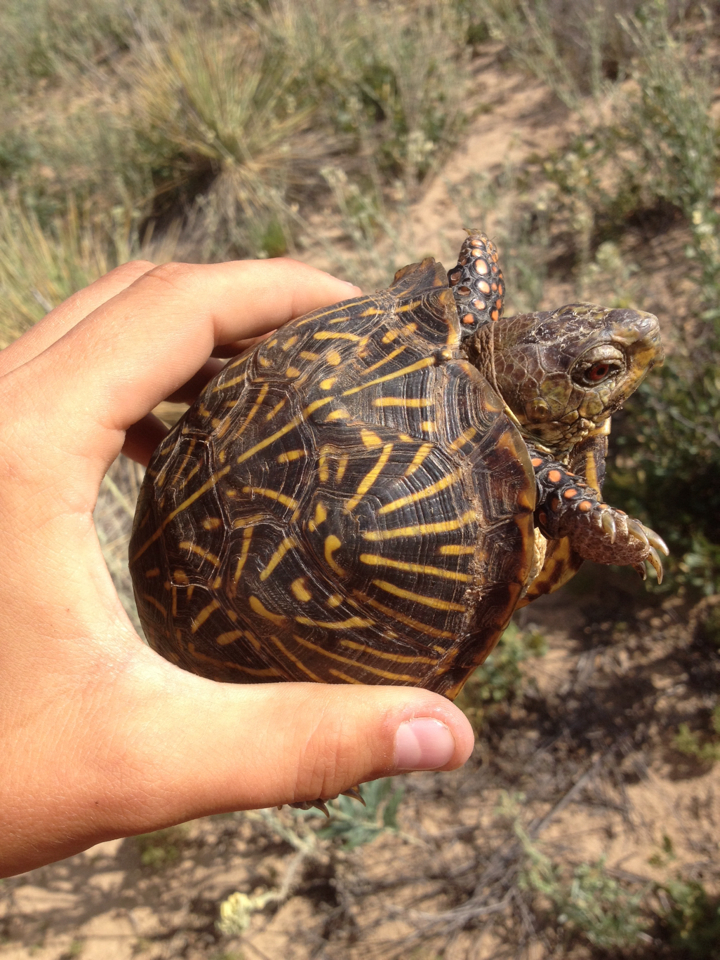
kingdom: Animalia
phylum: Chordata
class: Testudines
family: Emydidae
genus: Terrapene
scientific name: Terrapene ornata
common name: Western box turtle
